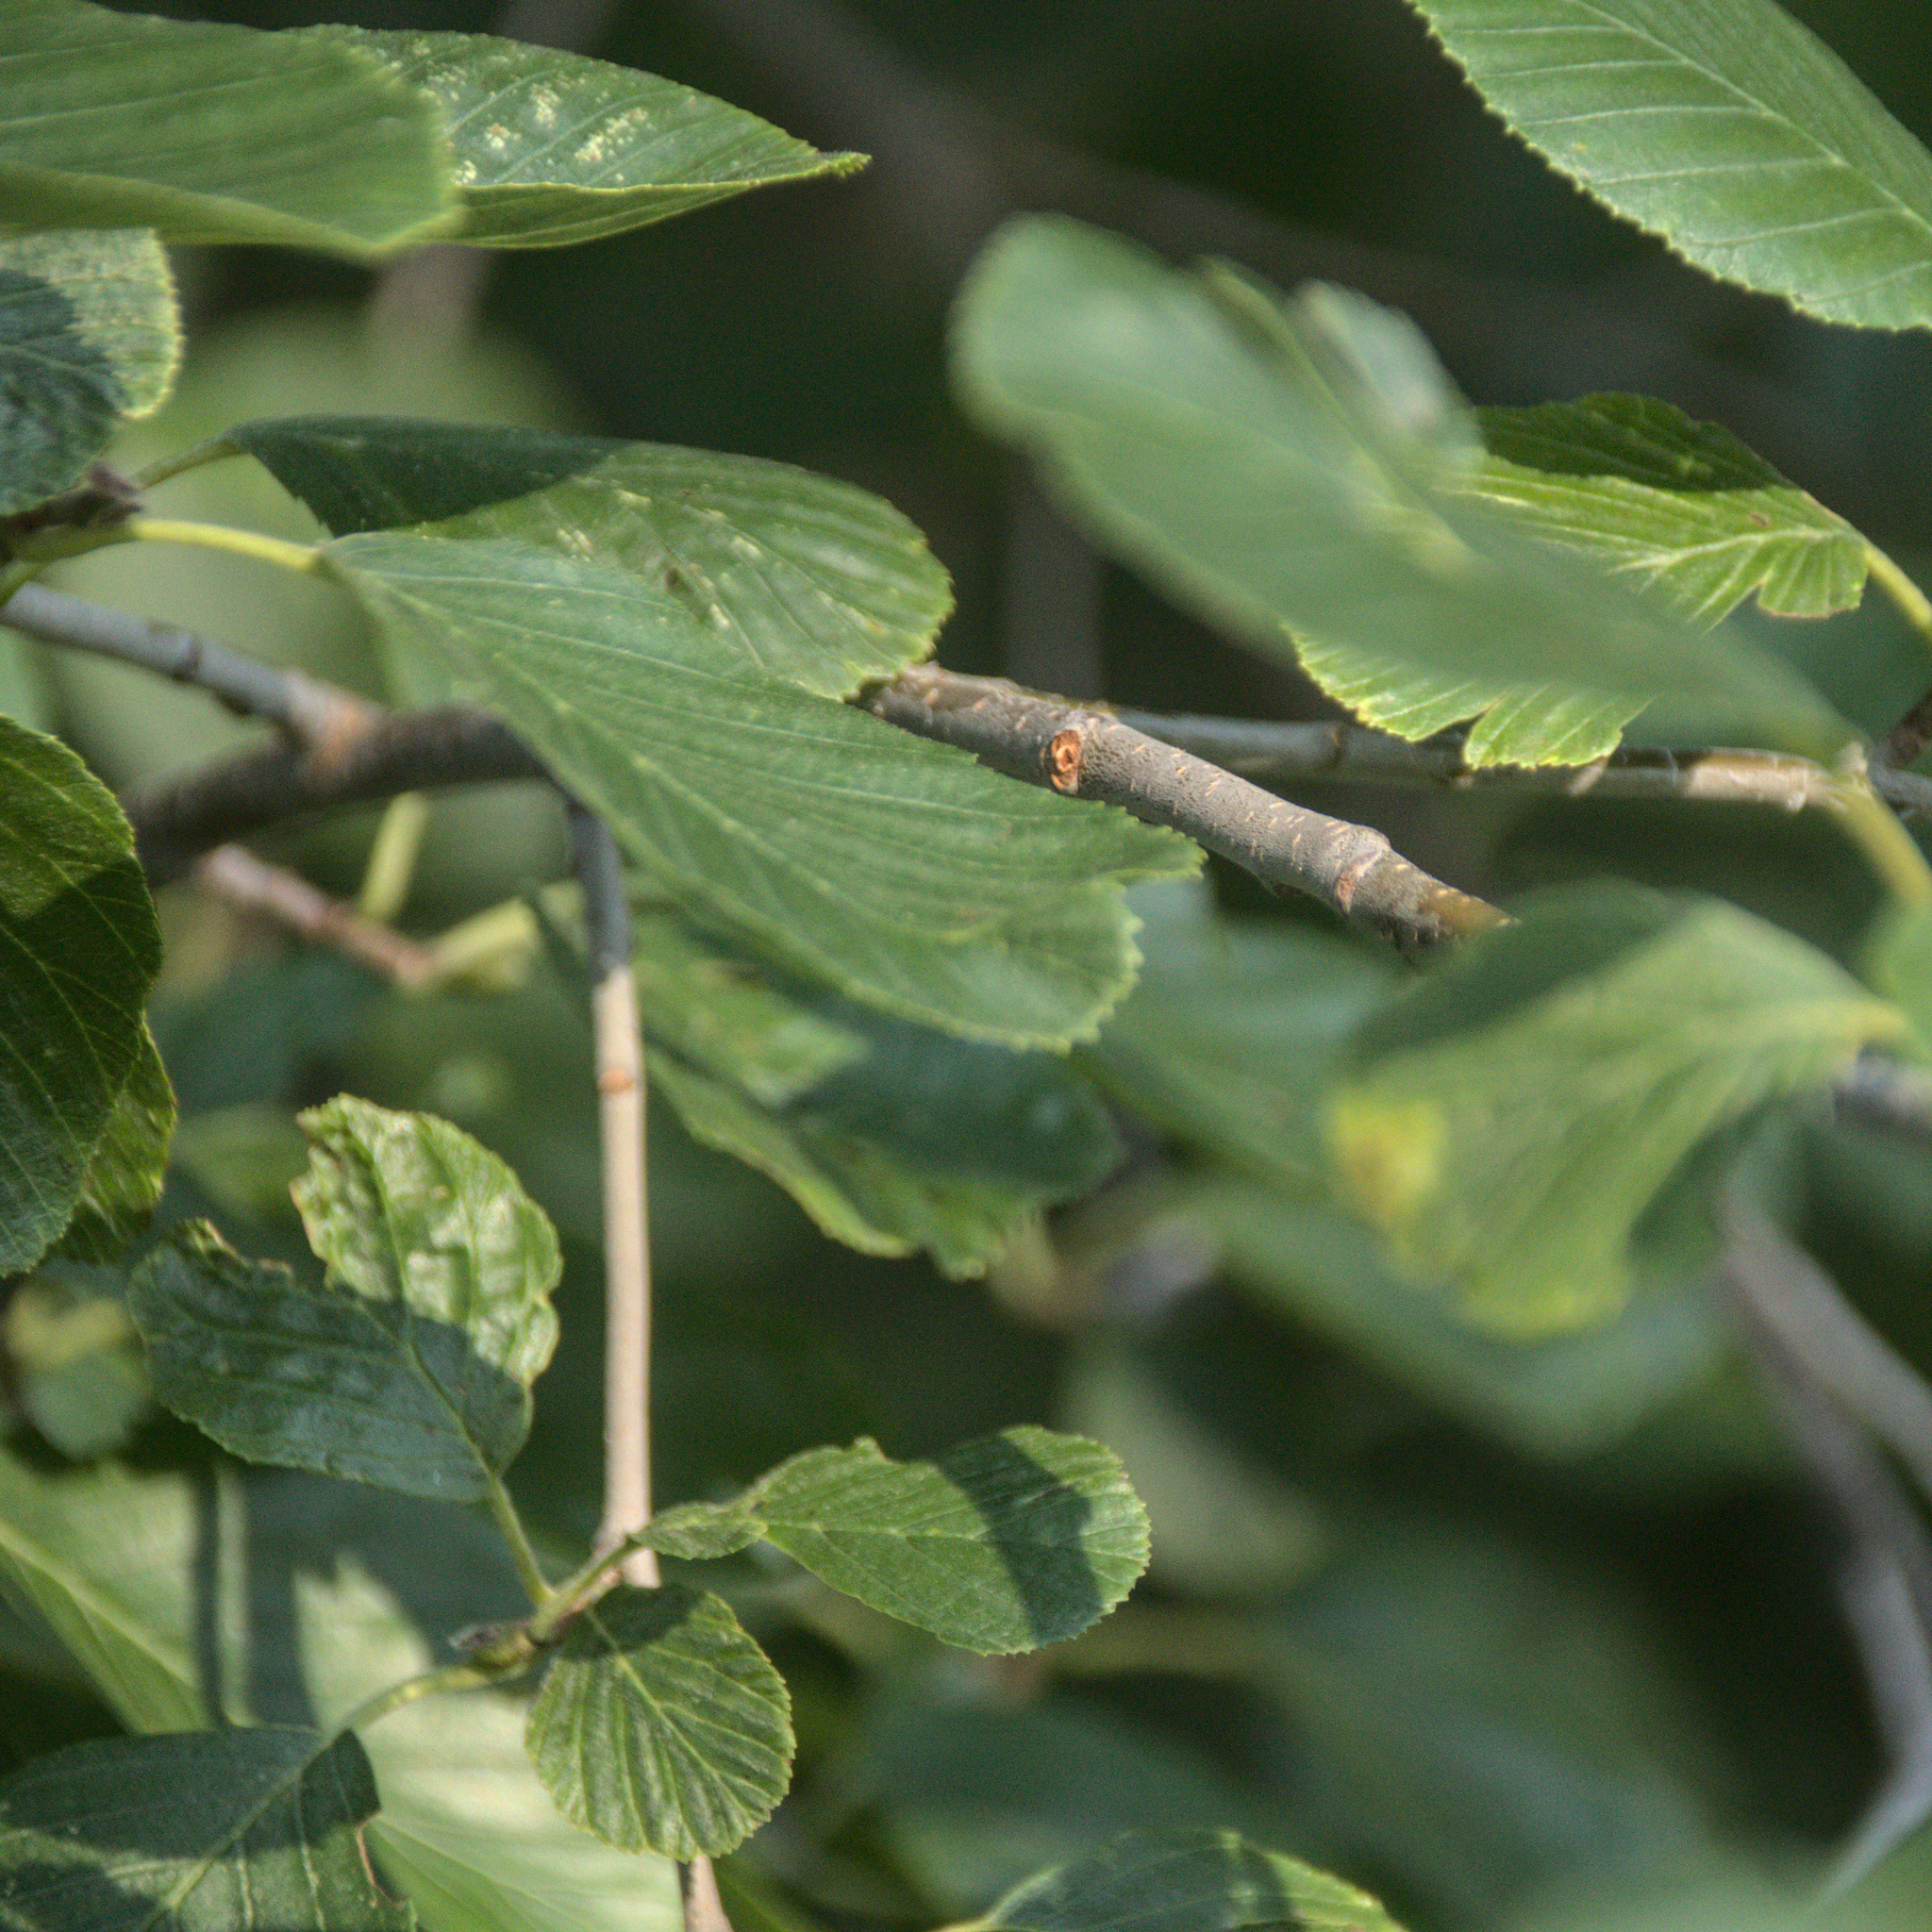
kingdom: Plantae
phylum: Tracheophyta
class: Magnoliopsida
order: Fagales
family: Betulaceae
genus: Alnus
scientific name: Alnus incana
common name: Grey alder
